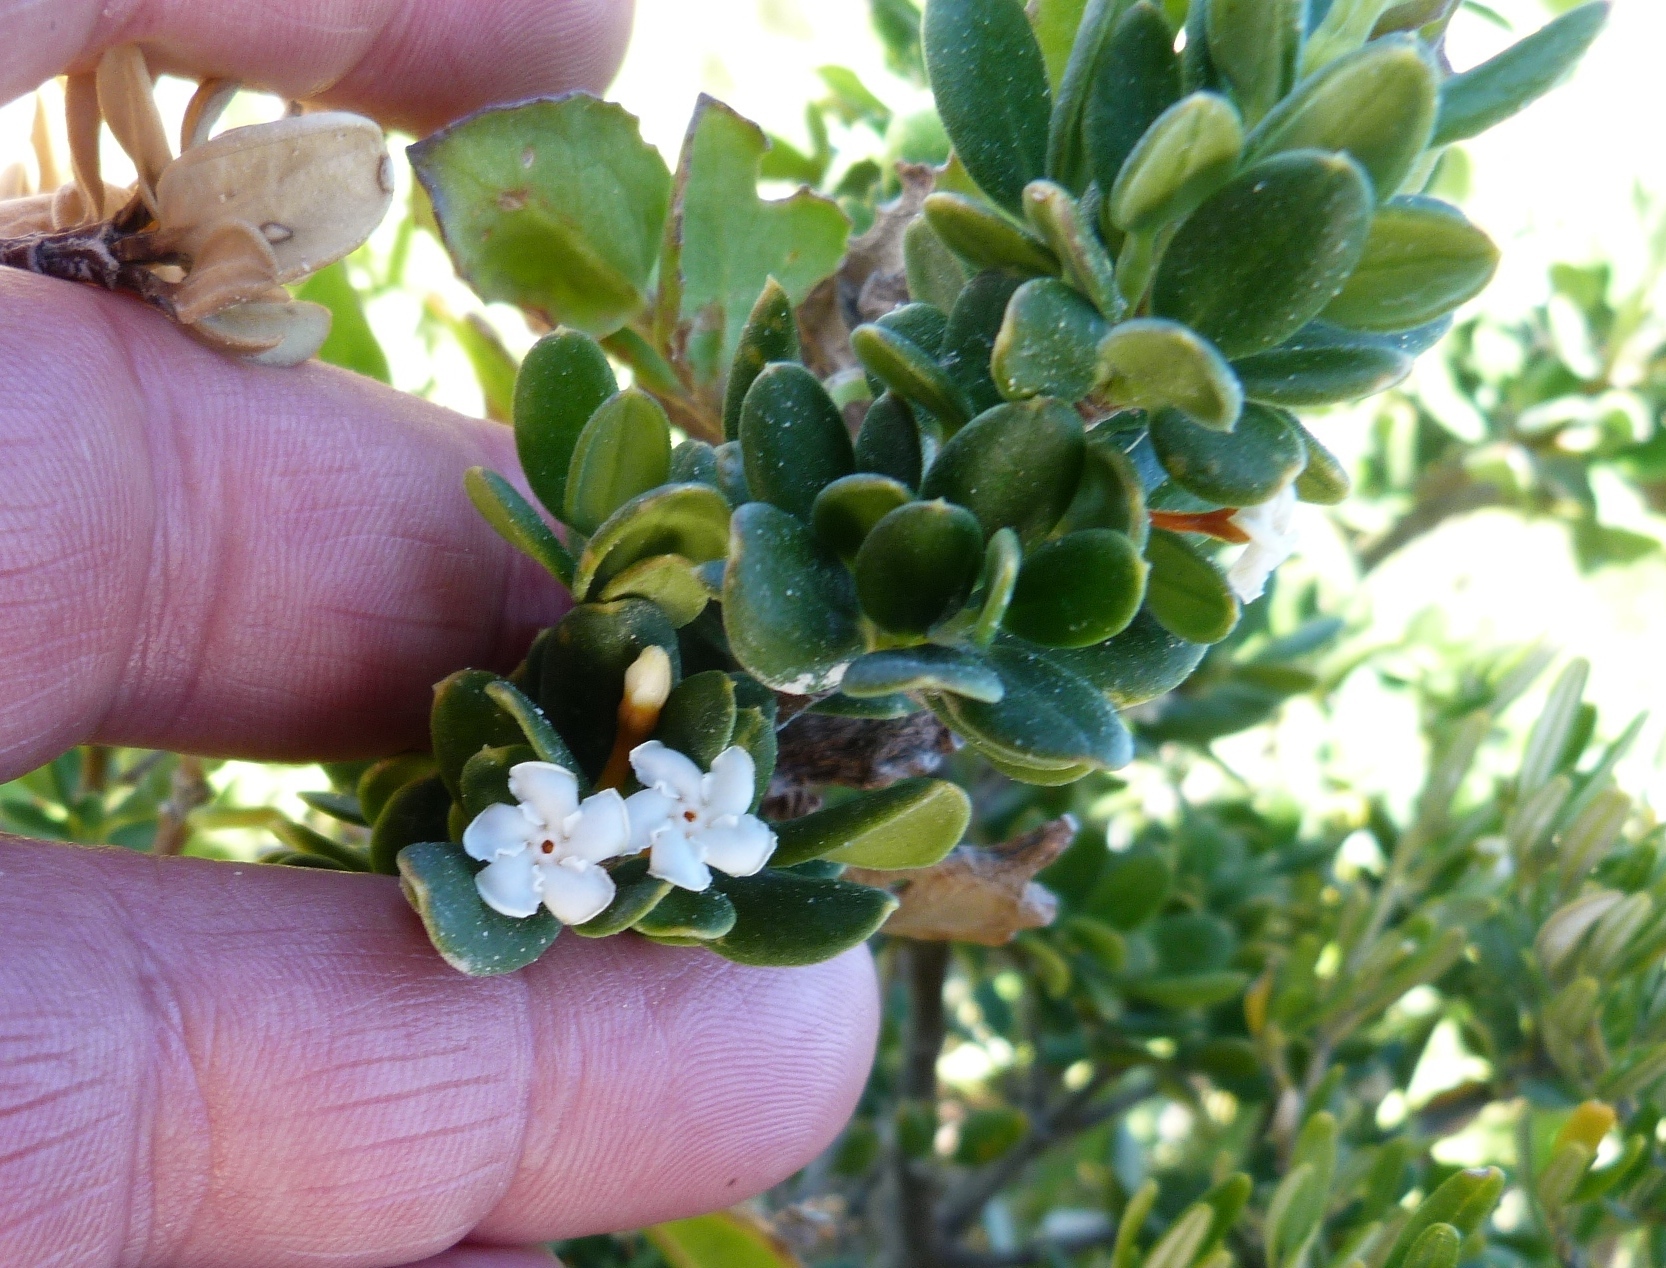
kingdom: Plantae
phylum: Tracheophyta
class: Magnoliopsida
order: Gentianales
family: Apocynaceae
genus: Alyxia
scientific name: Alyxia buxifolia
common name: Dysentery-bush
